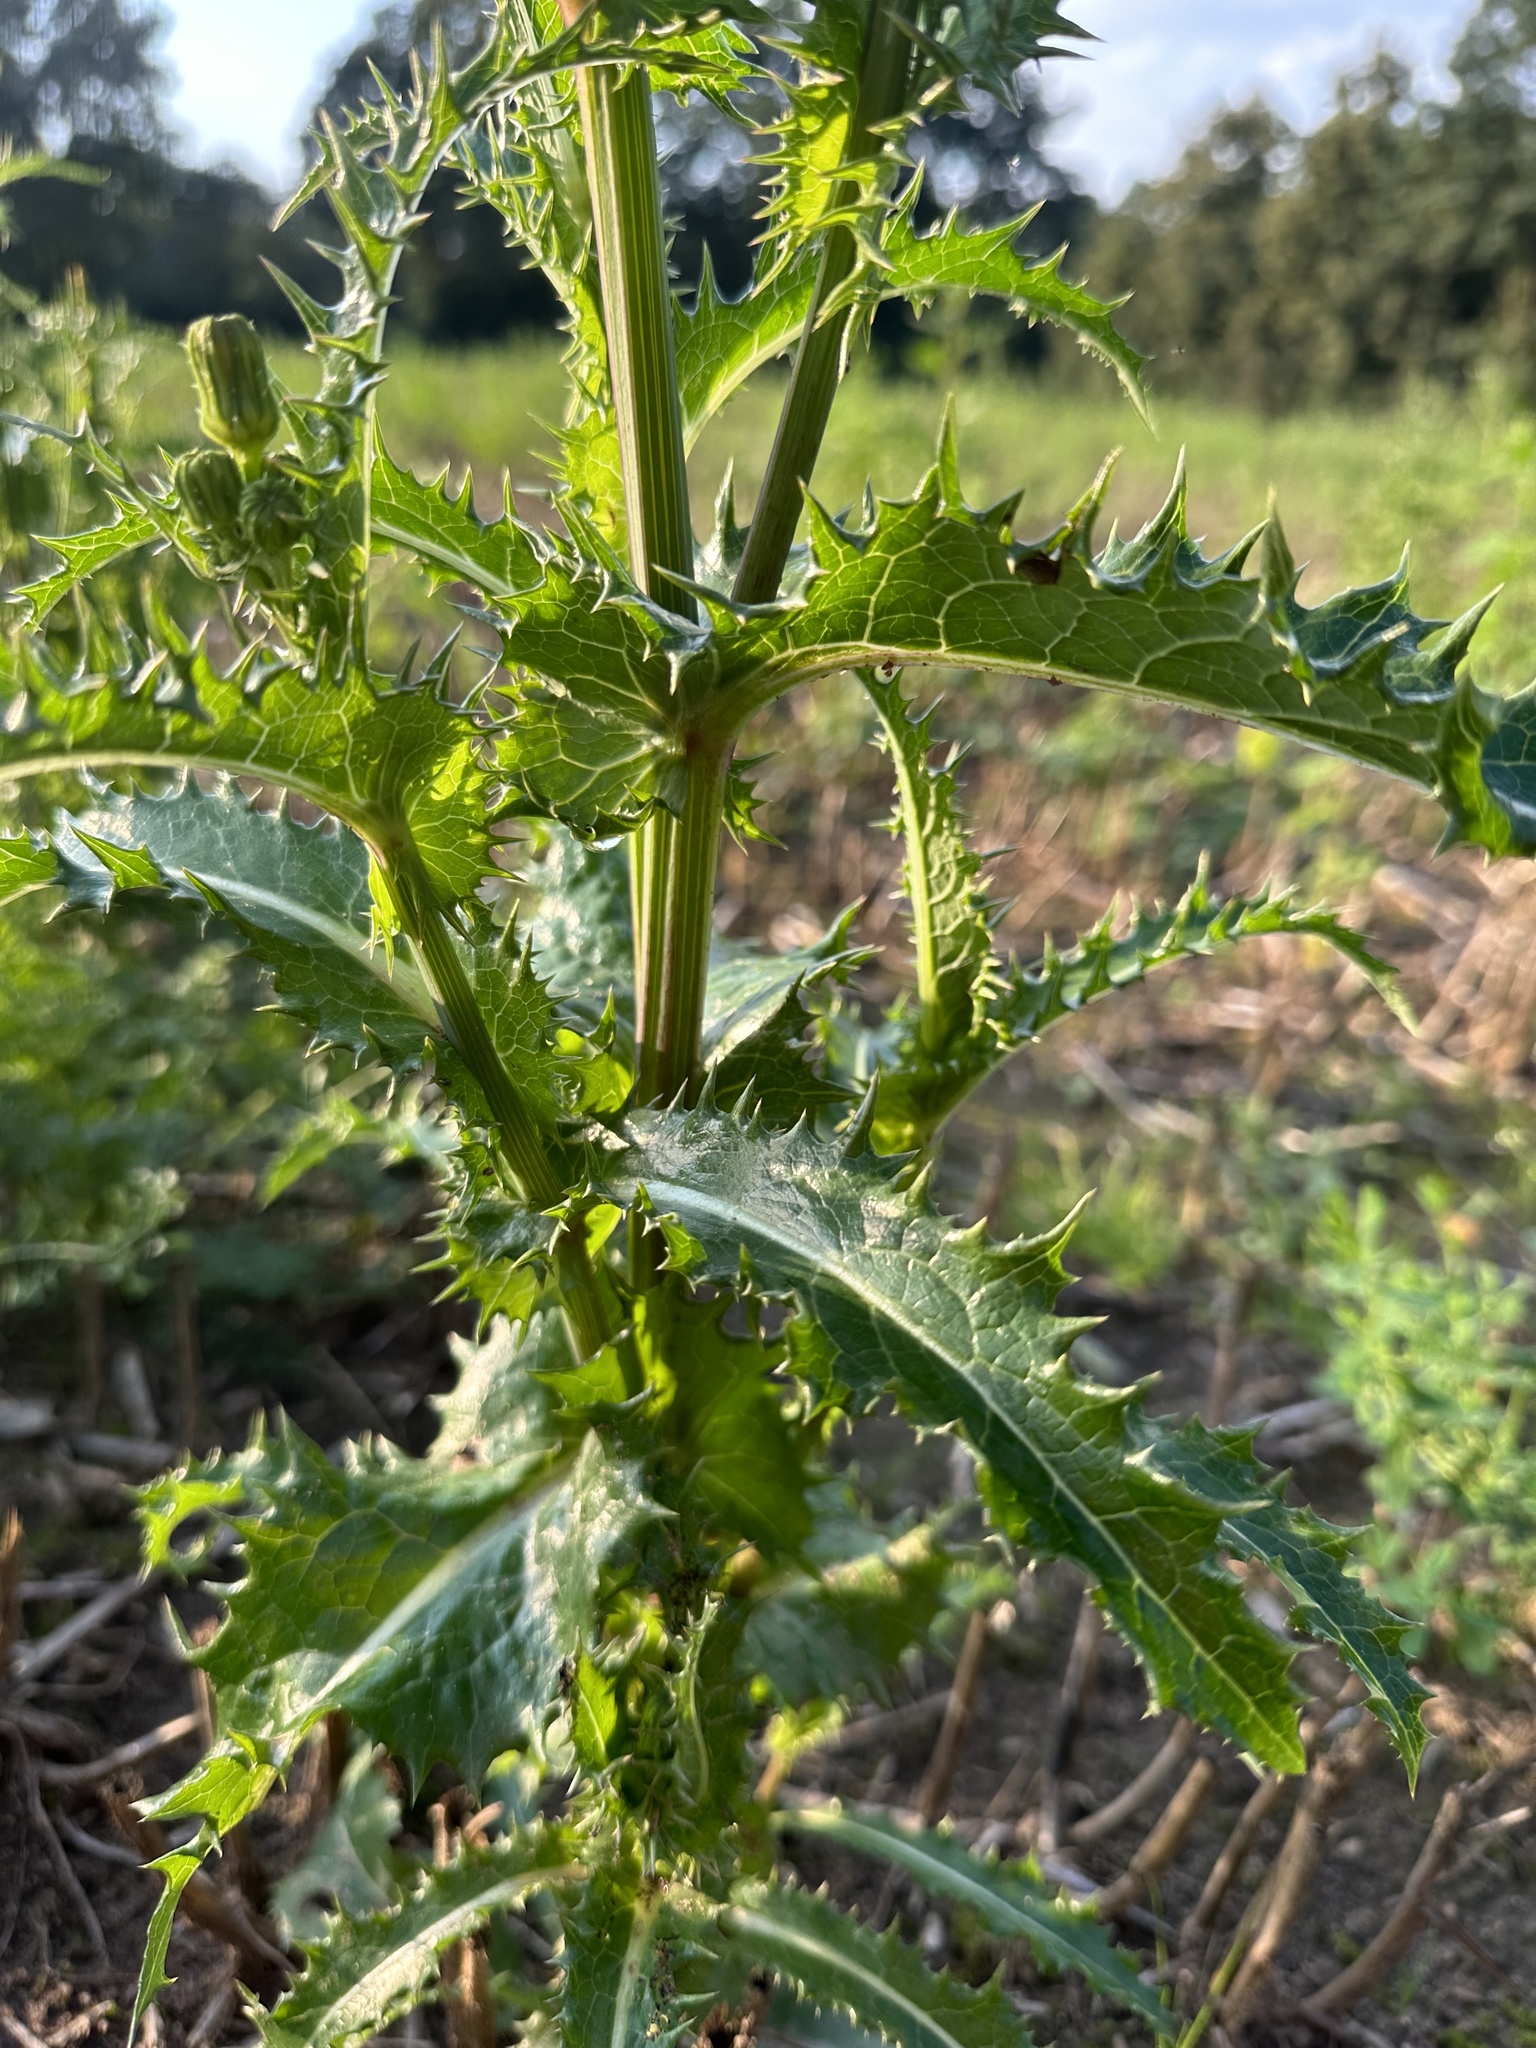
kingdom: Plantae
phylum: Tracheophyta
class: Magnoliopsida
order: Asterales
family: Asteraceae
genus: Sonchus
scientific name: Sonchus asper
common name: Prickly sow-thistle
